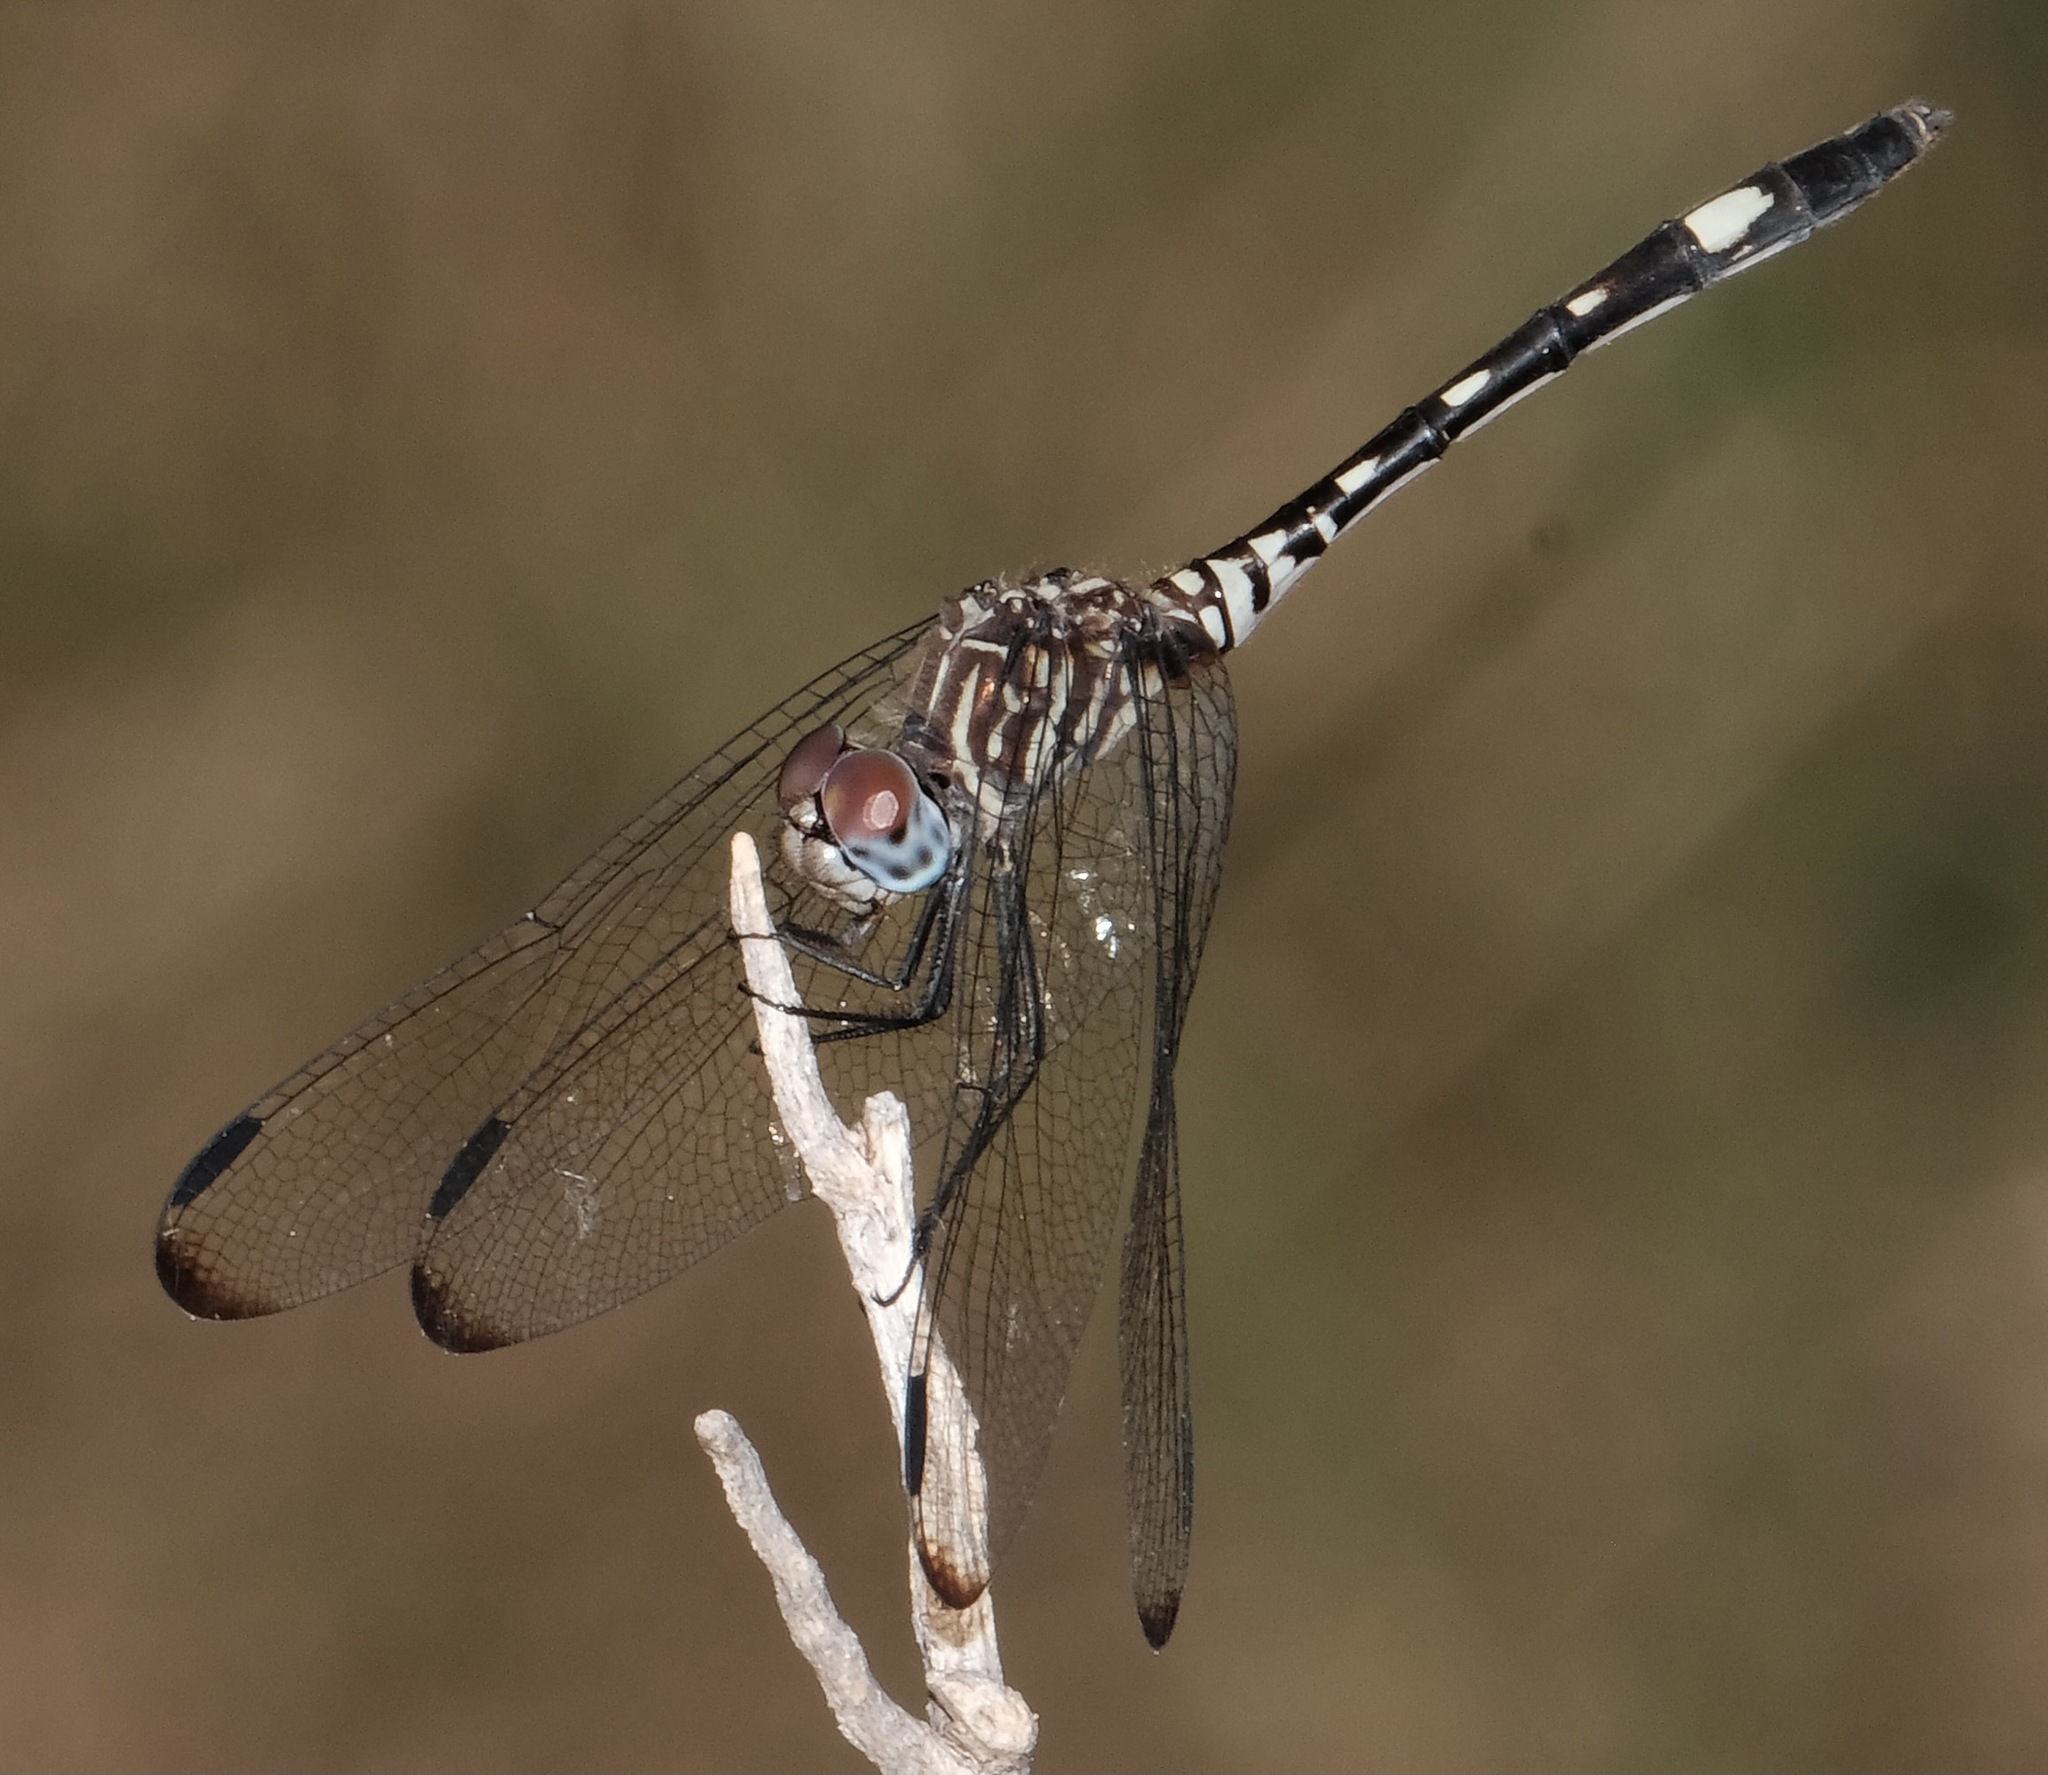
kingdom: Animalia
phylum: Arthropoda
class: Insecta
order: Odonata
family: Libellulidae
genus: Dythemis
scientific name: Dythemis velox
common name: Swift setwing
